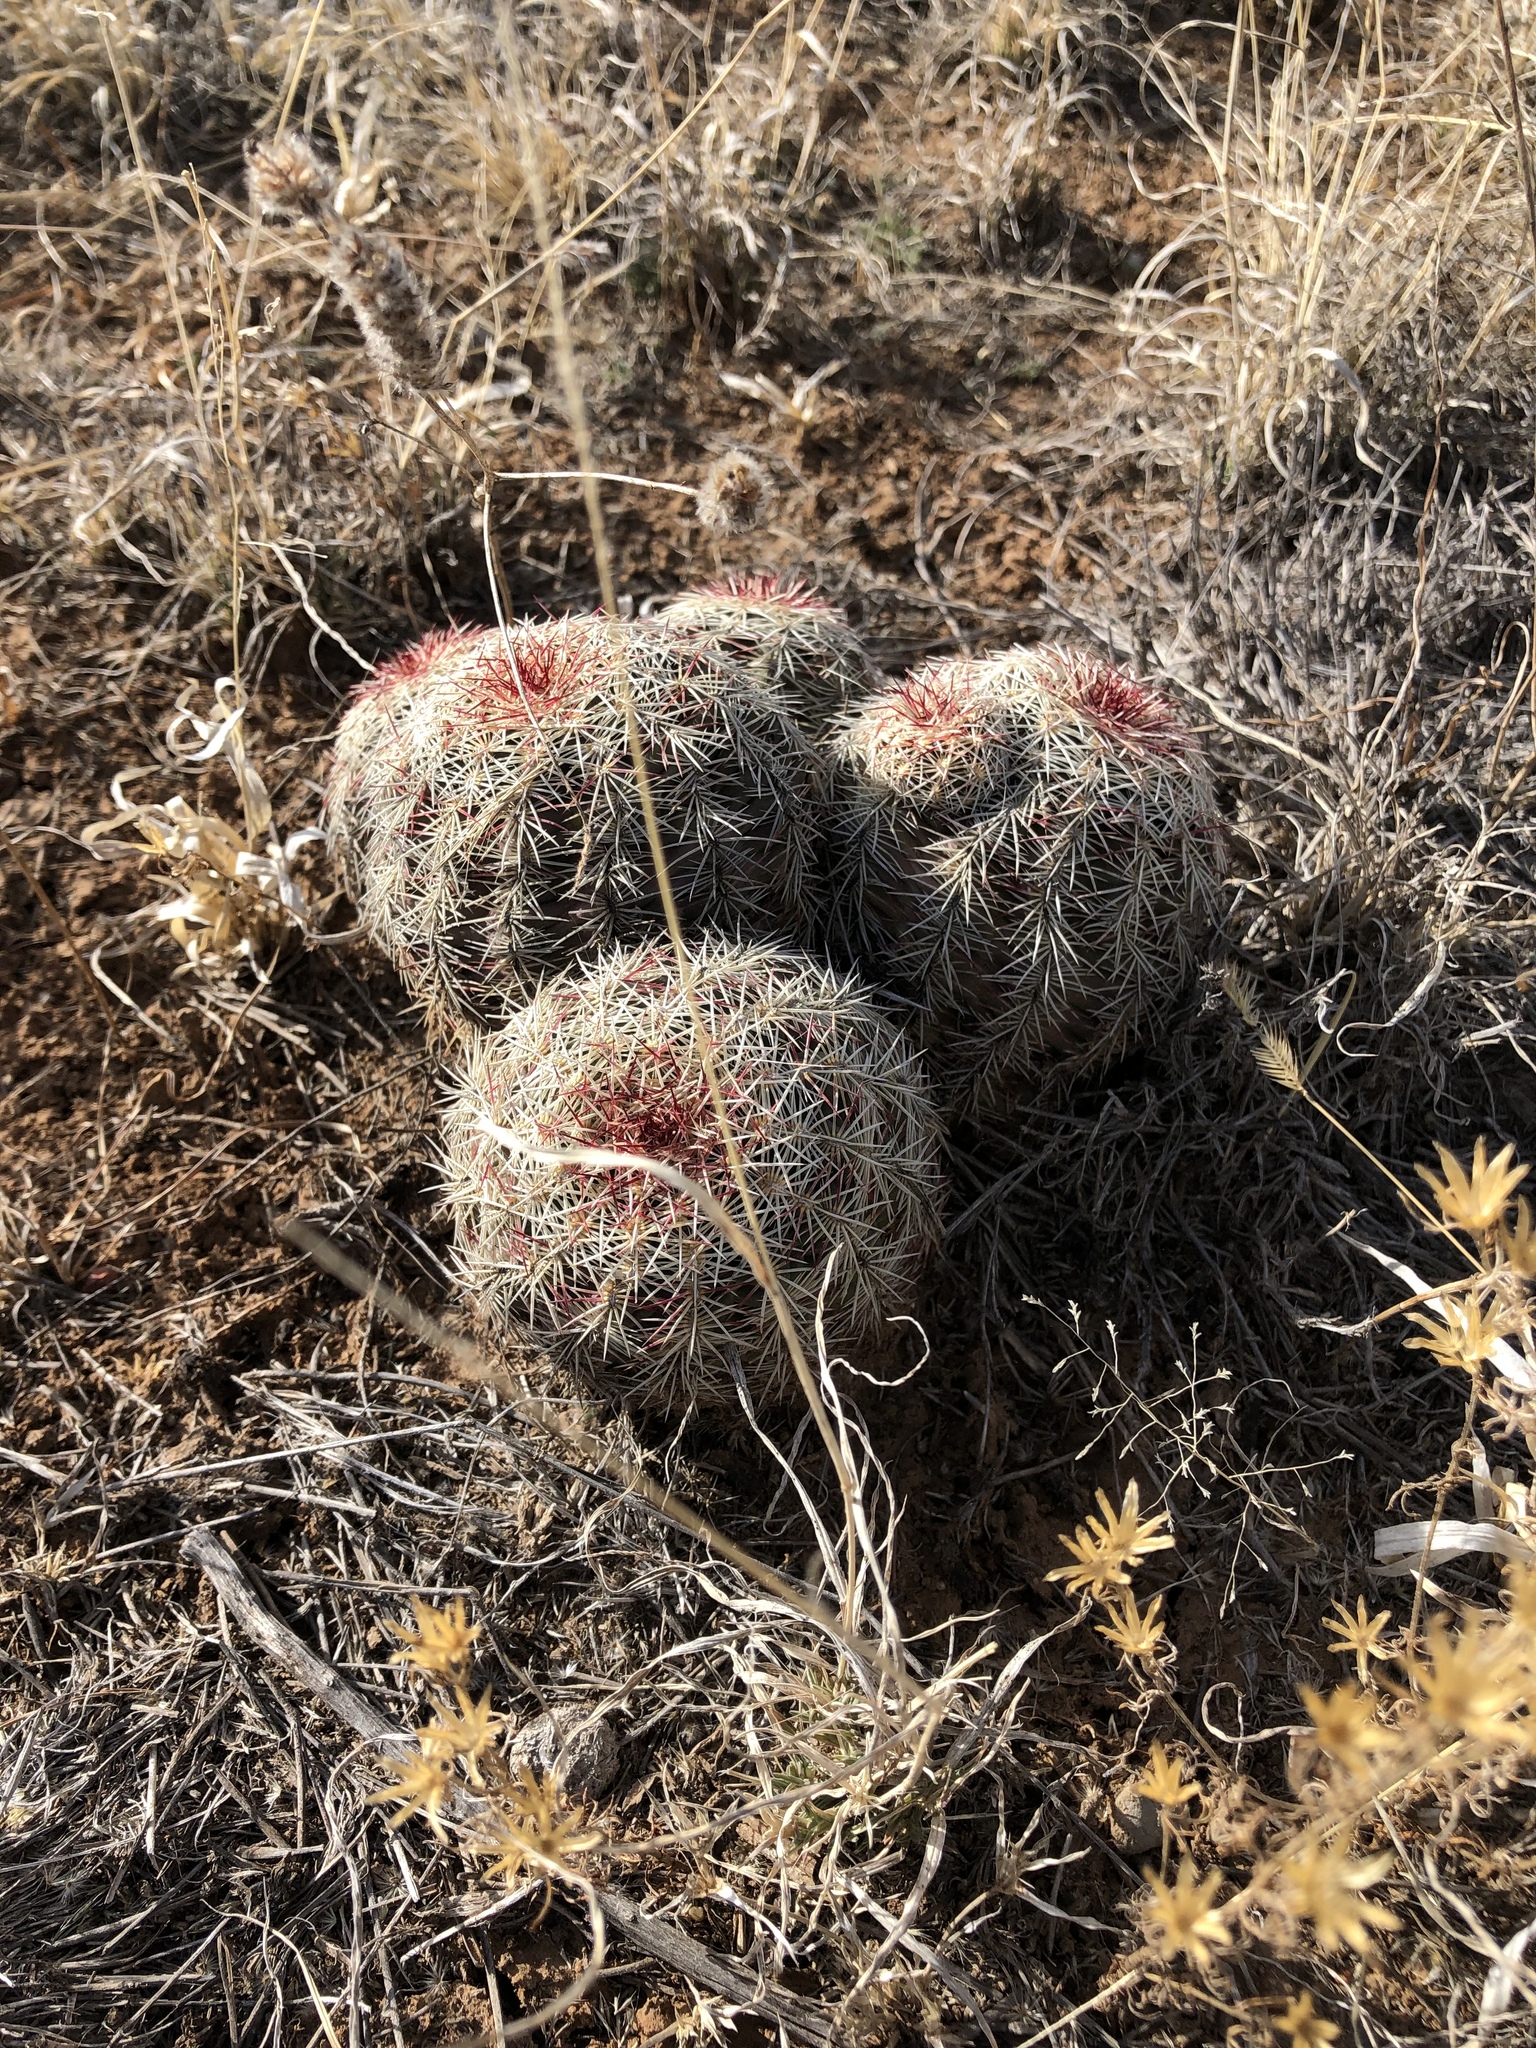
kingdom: Plantae
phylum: Tracheophyta
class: Magnoliopsida
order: Caryophyllales
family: Cactaceae
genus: Echinocereus
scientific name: Echinocereus viridiflorus
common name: Nylon hedgehog cactus
